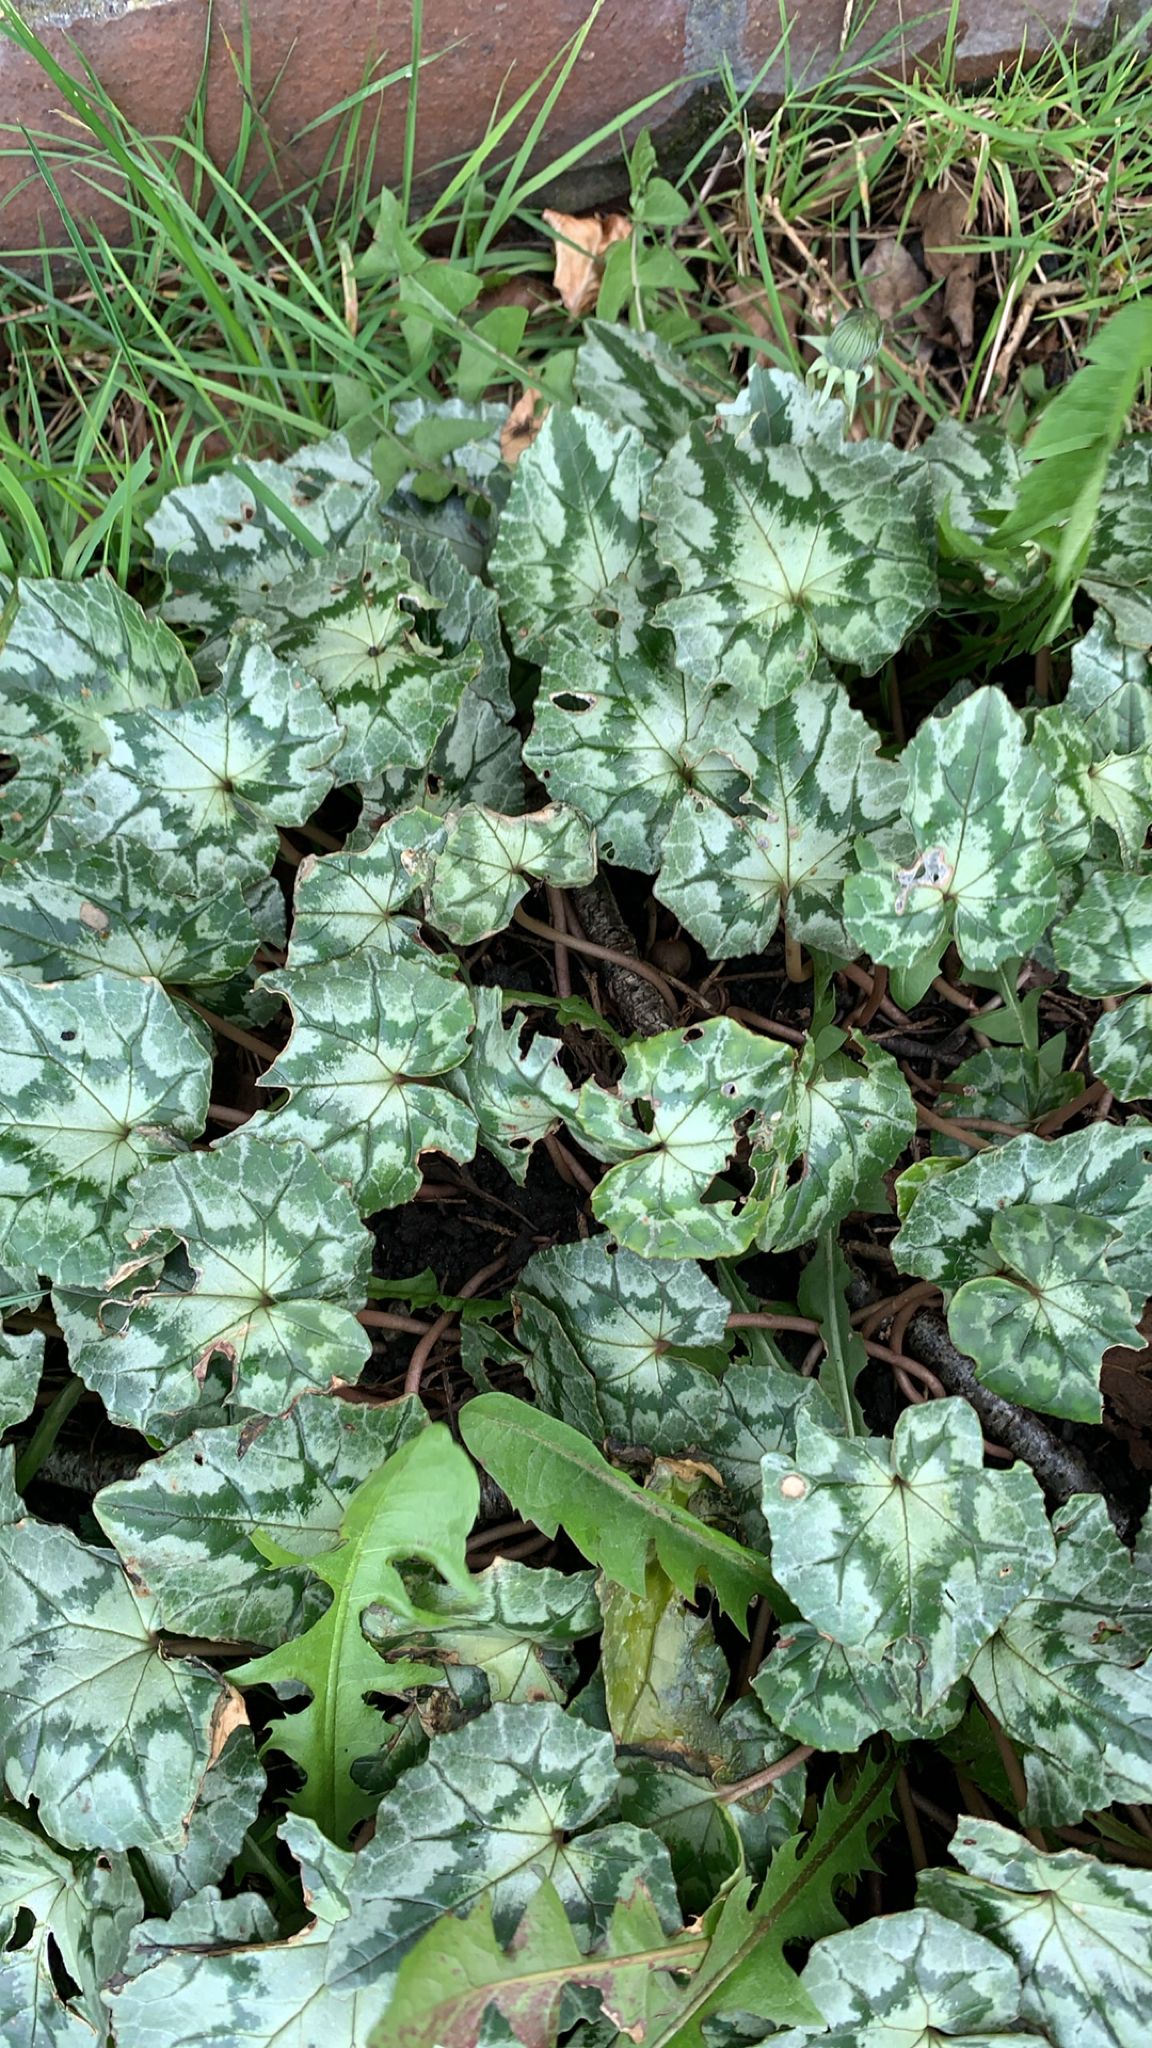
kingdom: Plantae
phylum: Tracheophyta
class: Magnoliopsida
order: Ericales
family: Primulaceae
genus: Cyclamen
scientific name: Cyclamen hederifolium
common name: Sowbread
